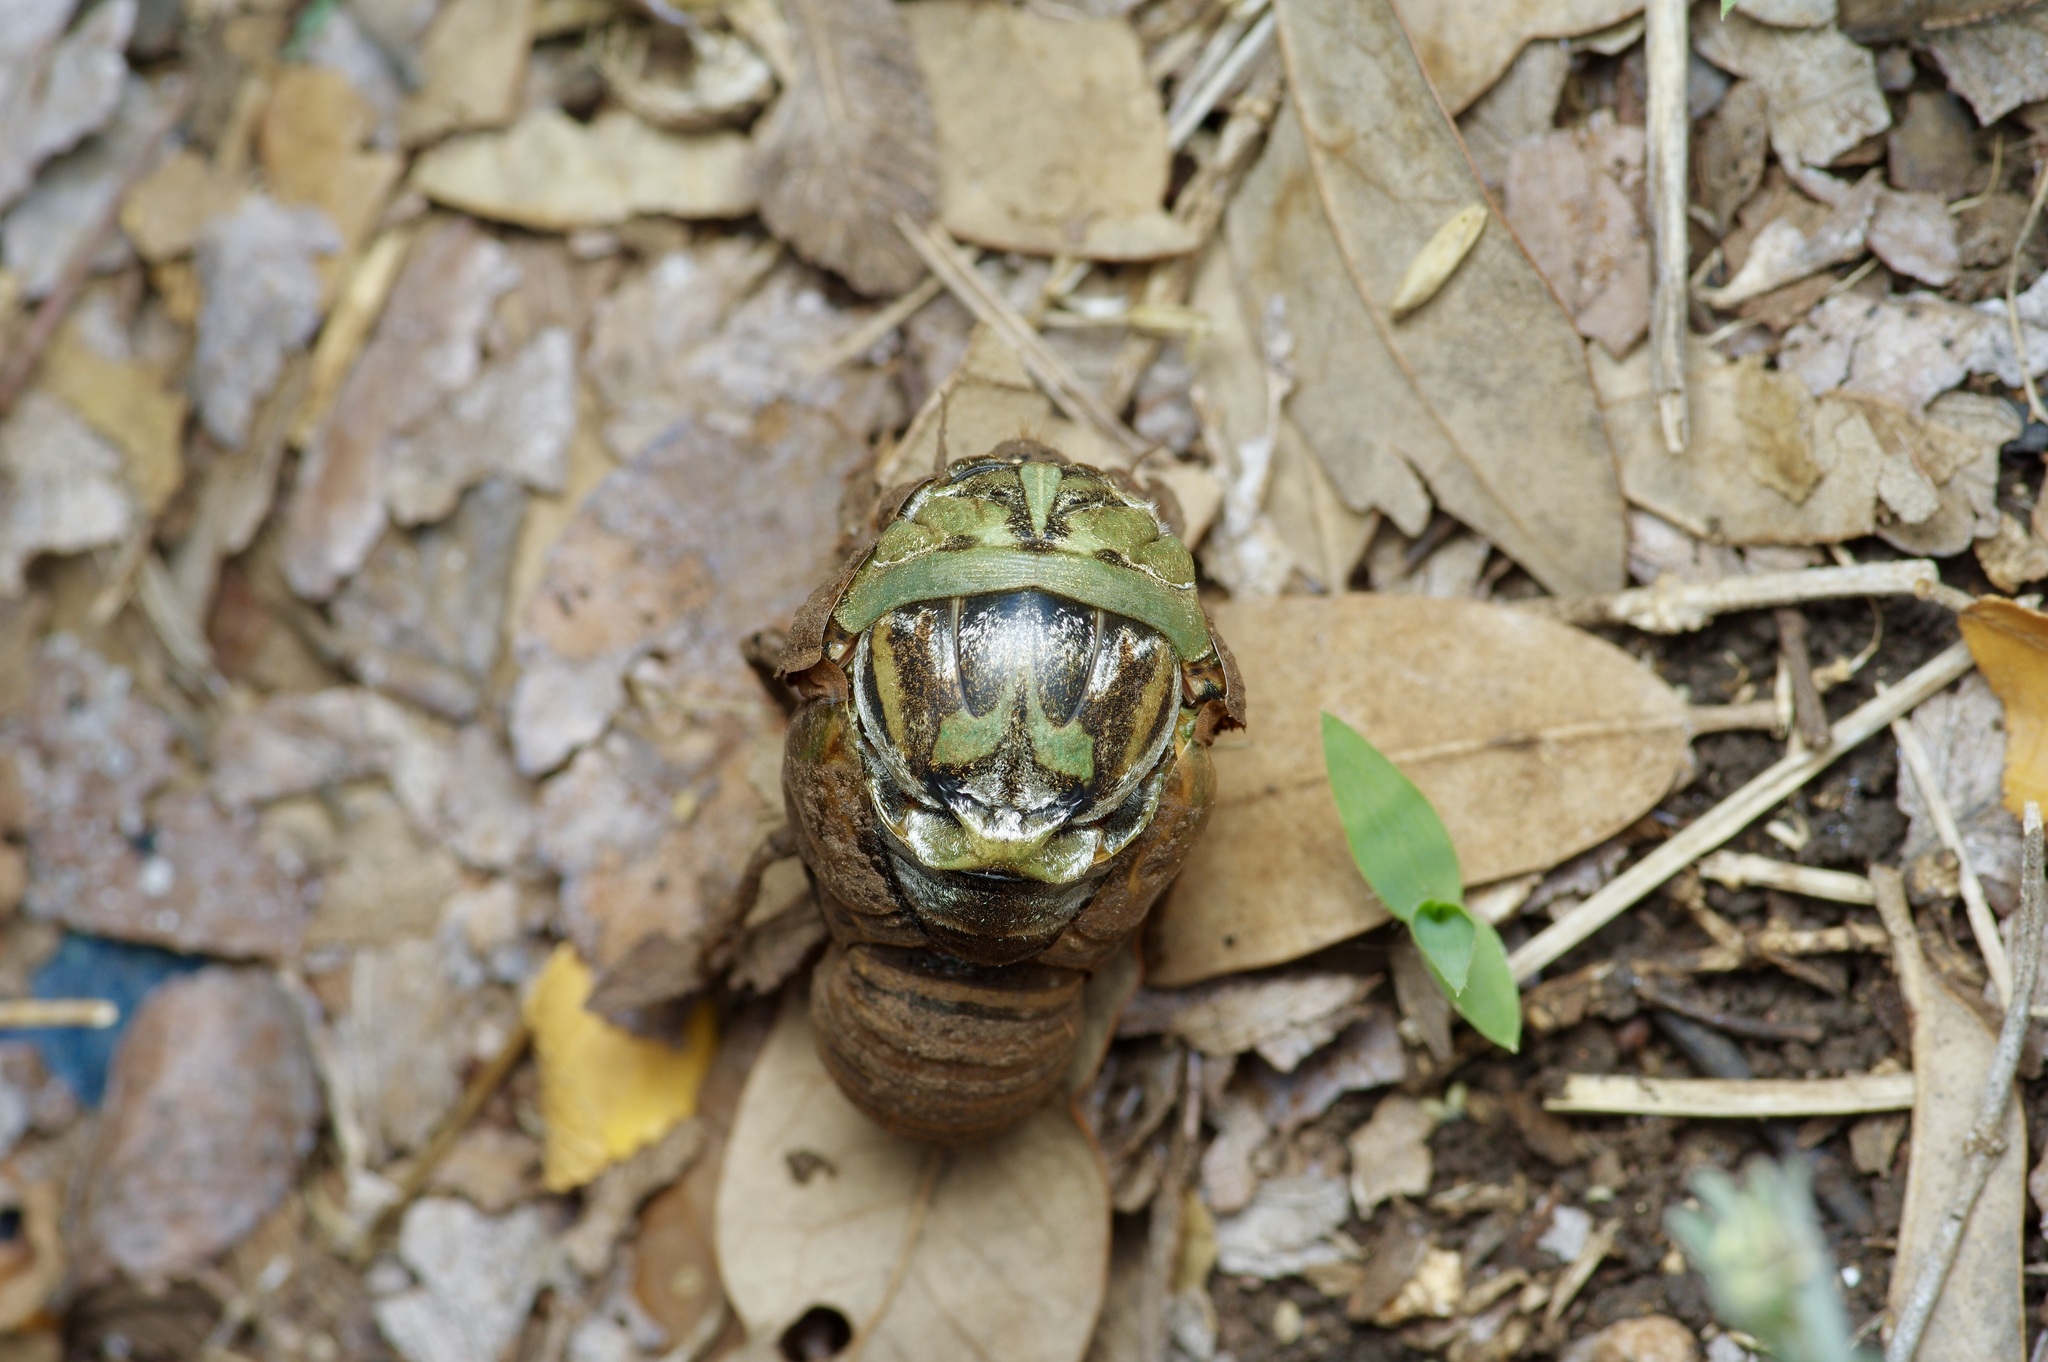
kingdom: Animalia
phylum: Arthropoda
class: Insecta
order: Hemiptera
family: Cicadidae
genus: Megatibicen
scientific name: Megatibicen resh
